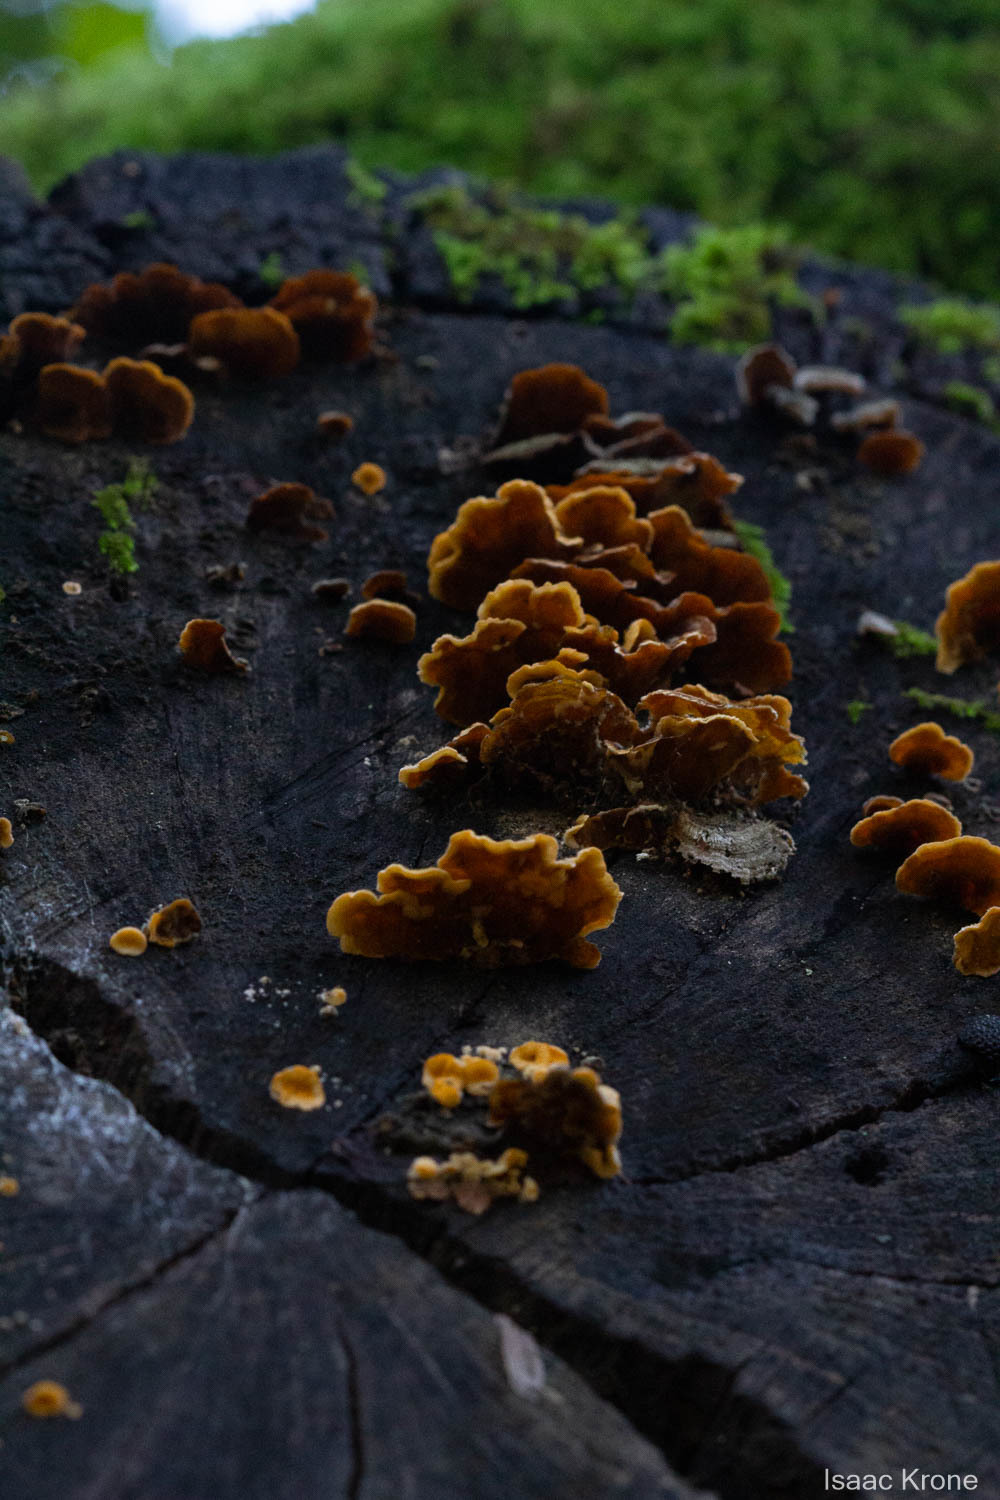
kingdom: Fungi
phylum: Basidiomycota
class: Agaricomycetes
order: Russulales
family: Stereaceae
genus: Stereum
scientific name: Stereum hirsutum
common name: Hairy curtain crust
